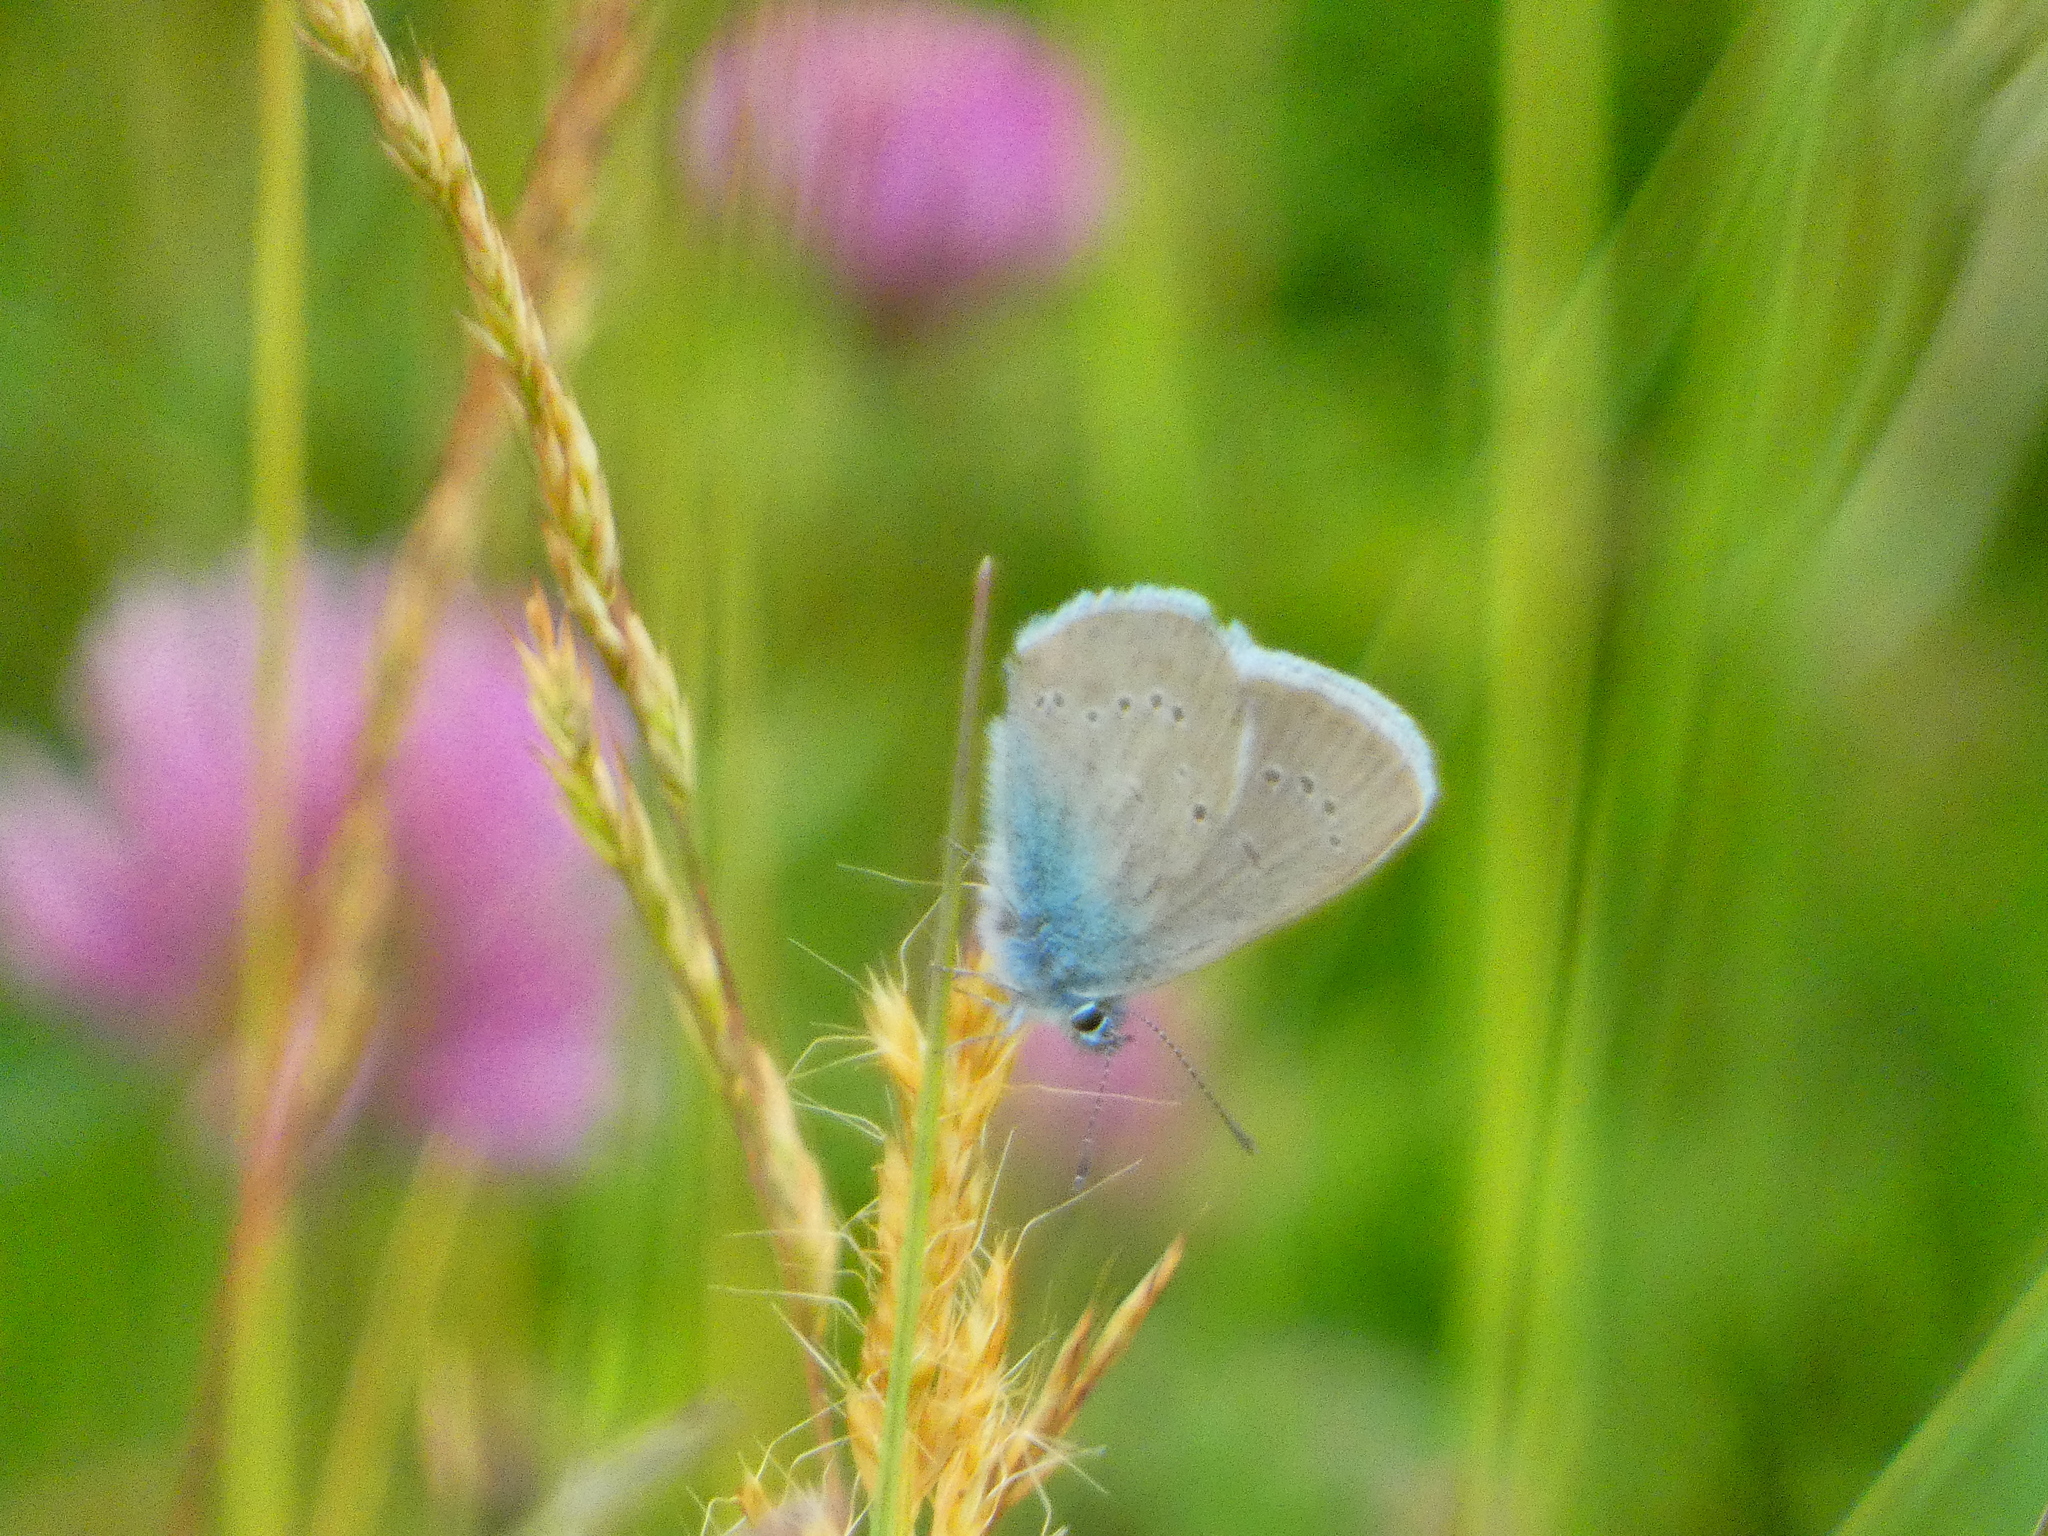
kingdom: Animalia
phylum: Arthropoda
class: Insecta
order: Lepidoptera
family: Lycaenidae
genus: Cyaniris
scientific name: Cyaniris semiargus
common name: Mazarine blue
